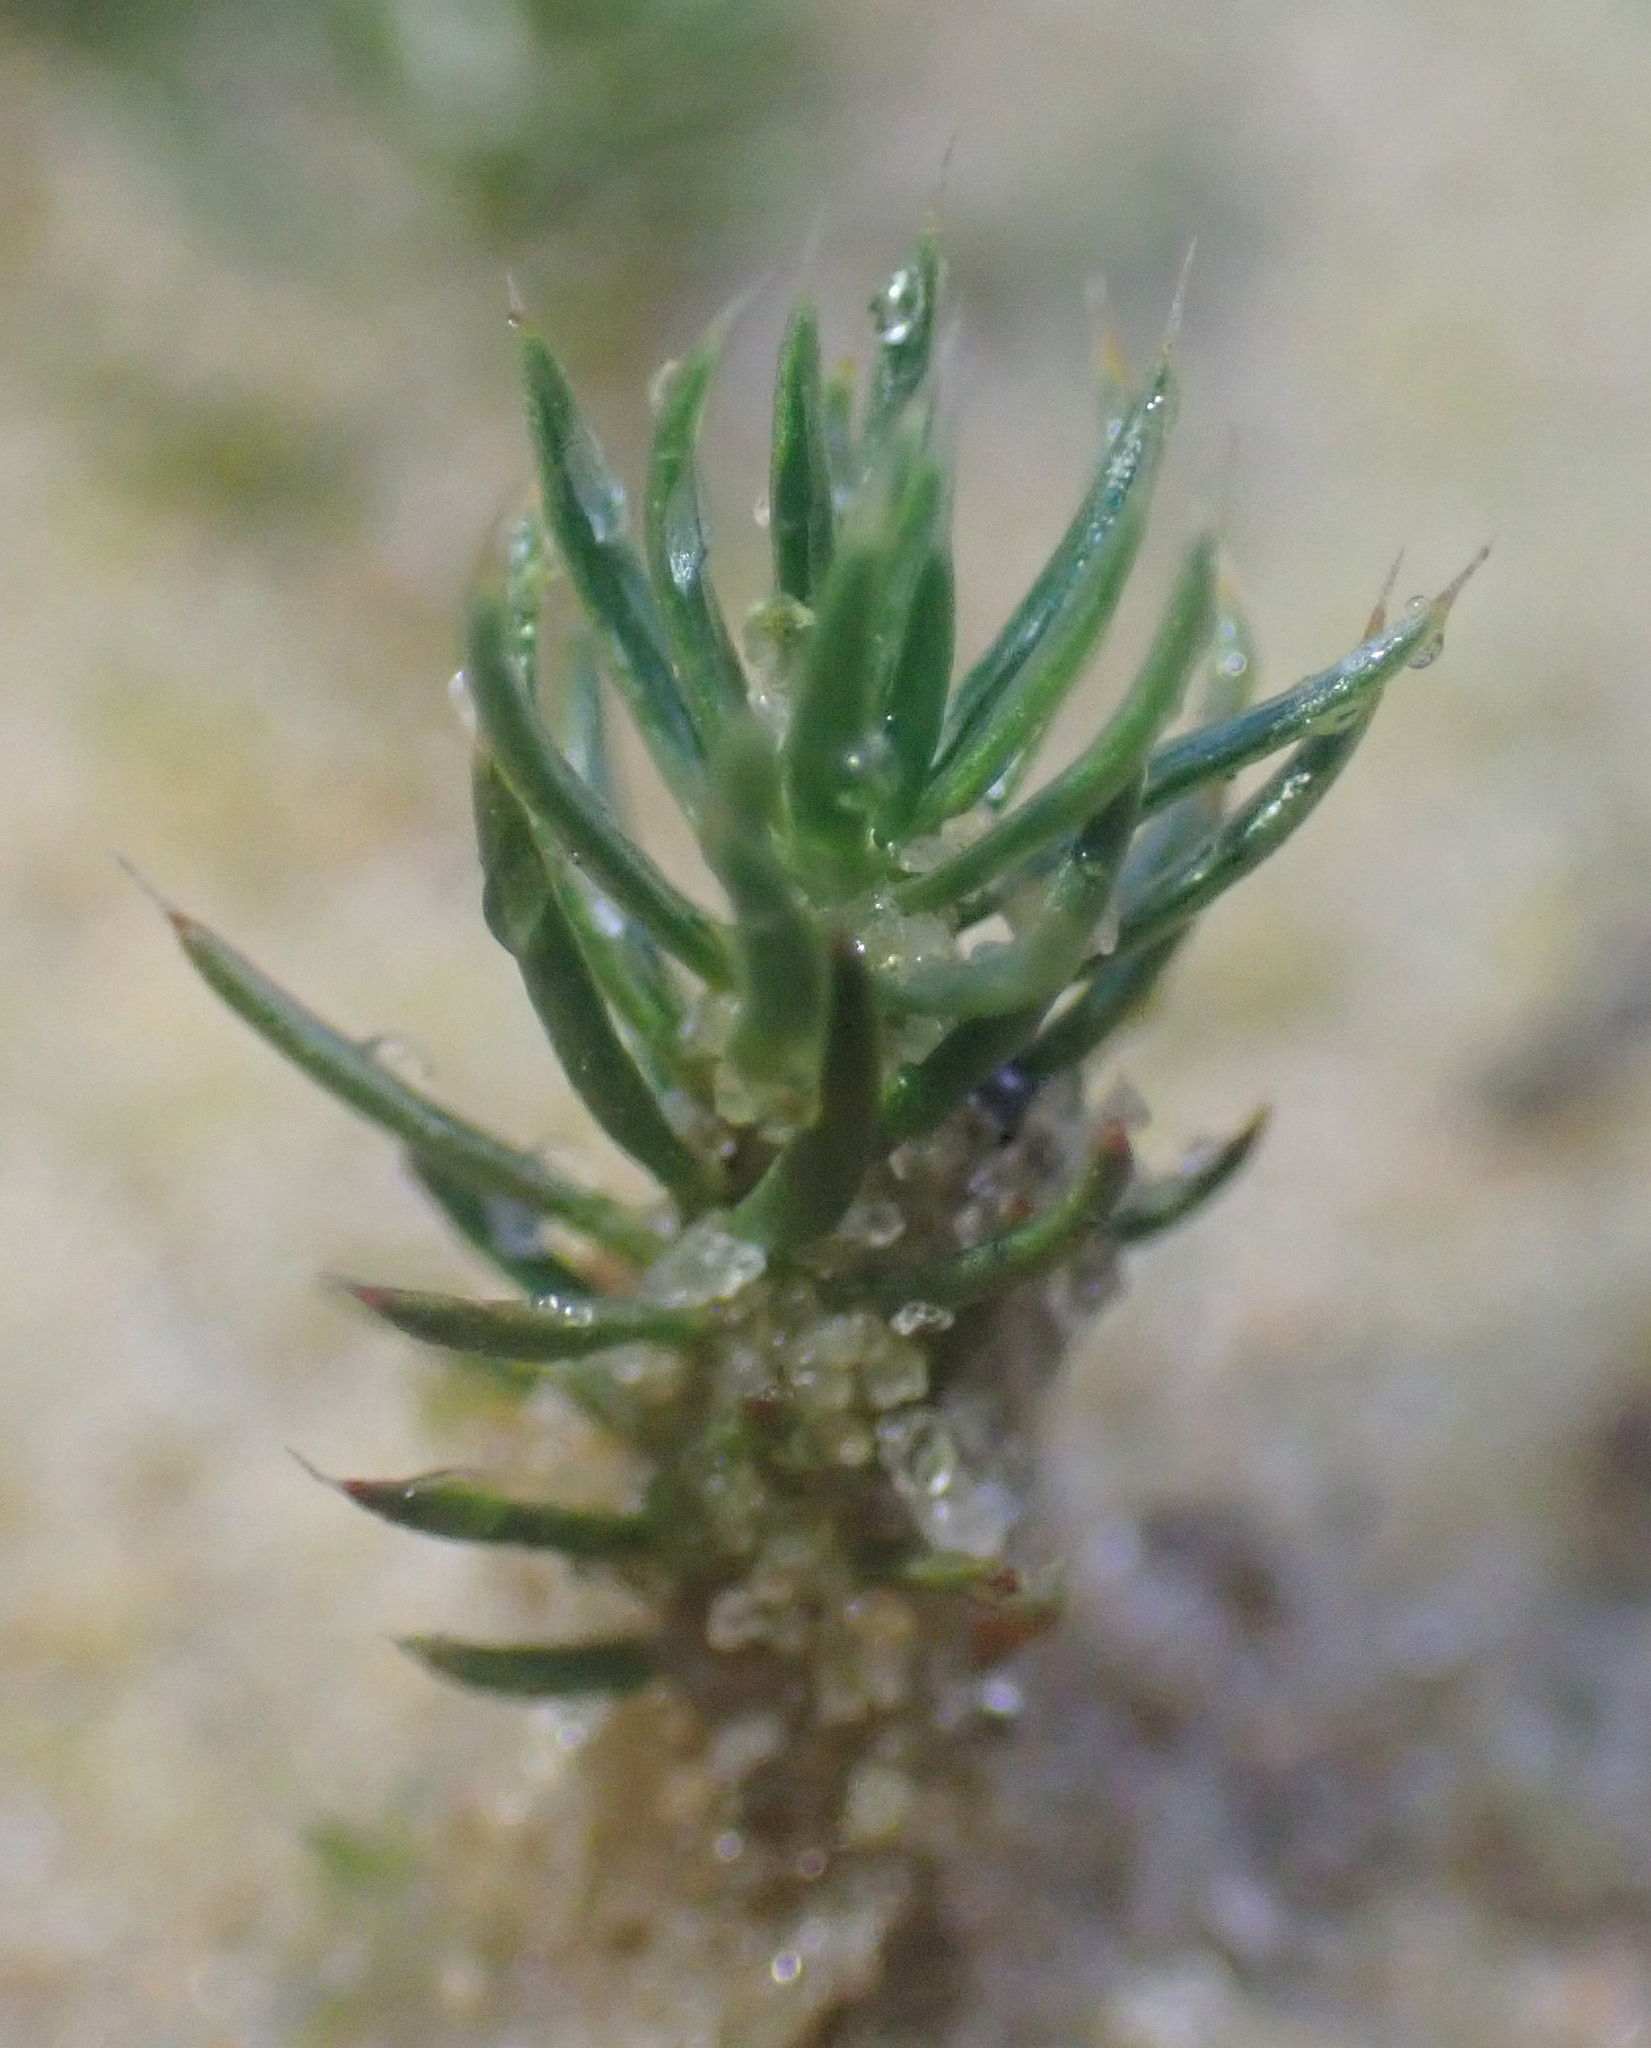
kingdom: Plantae
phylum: Bryophyta
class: Polytrichopsida
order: Polytrichales
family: Polytrichaceae
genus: Polytrichum
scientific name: Polytrichum piliferum
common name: Bristly haircap
